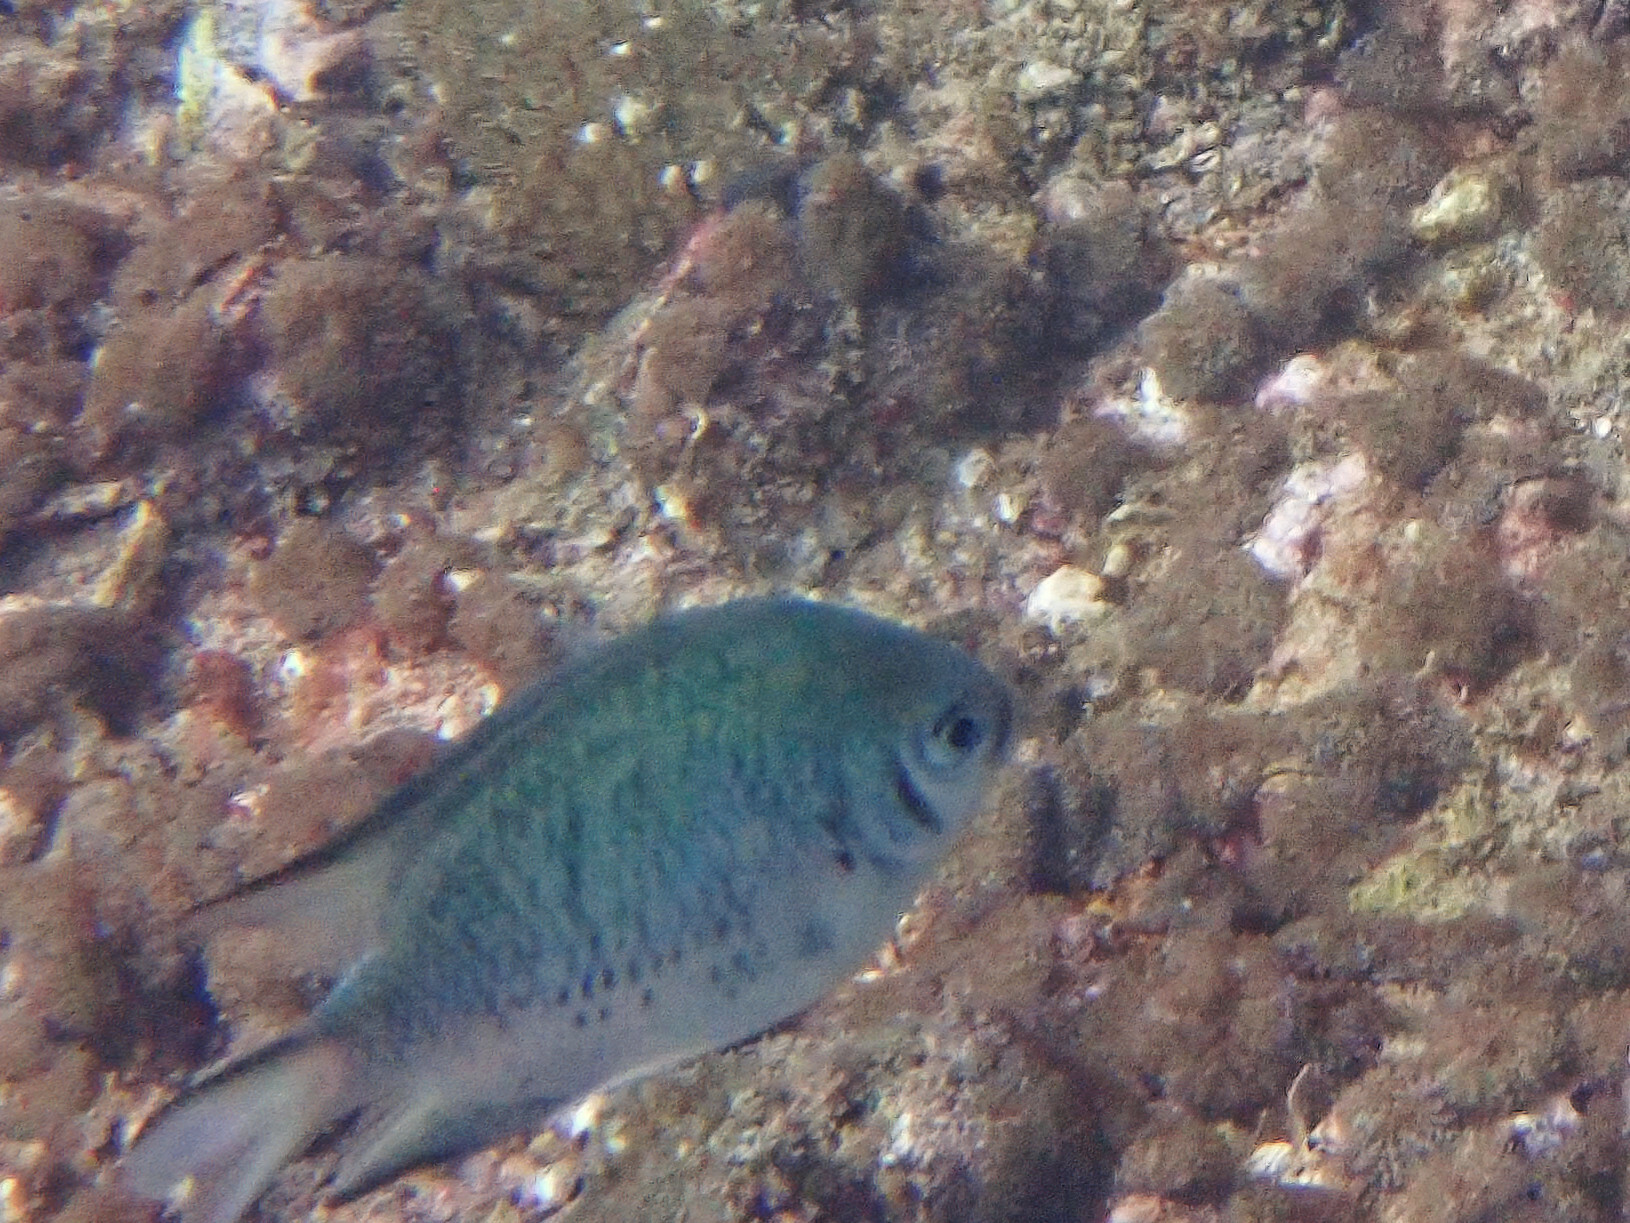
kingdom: Animalia
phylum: Chordata
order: Perciformes
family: Pomacentridae
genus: Amblyglyphidodon
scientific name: Amblyglyphidodon indicus
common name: Maldives damselfish
